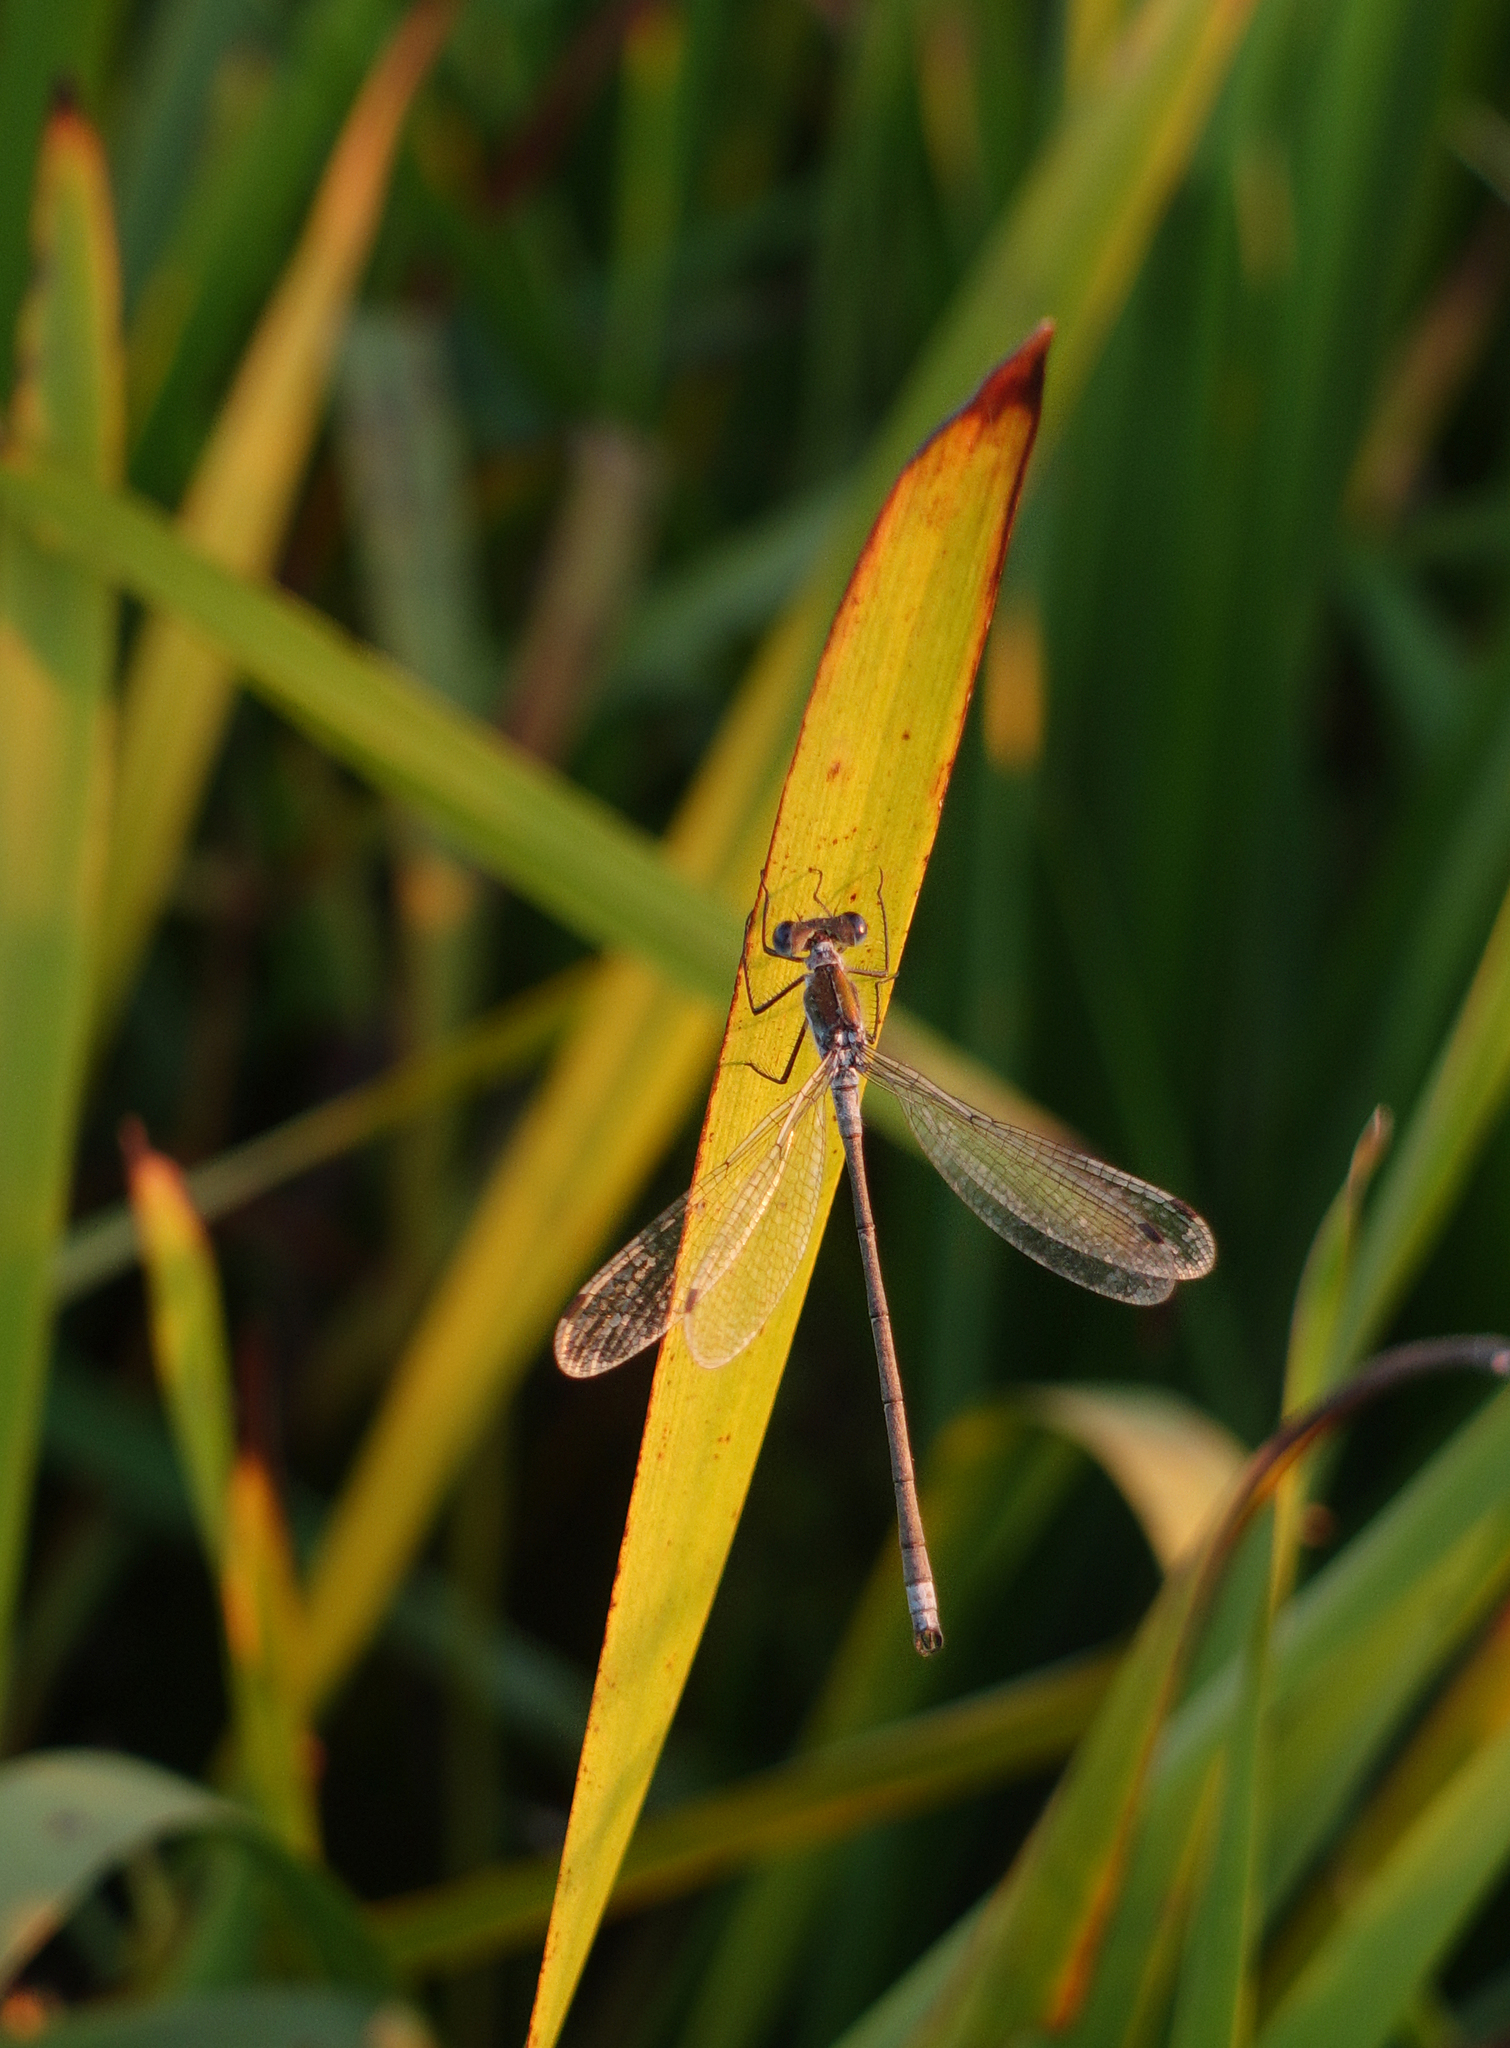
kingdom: Animalia
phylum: Arthropoda
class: Insecta
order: Odonata
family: Lestidae
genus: Lestes
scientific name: Lestes sponsa
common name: Common spreadwing
